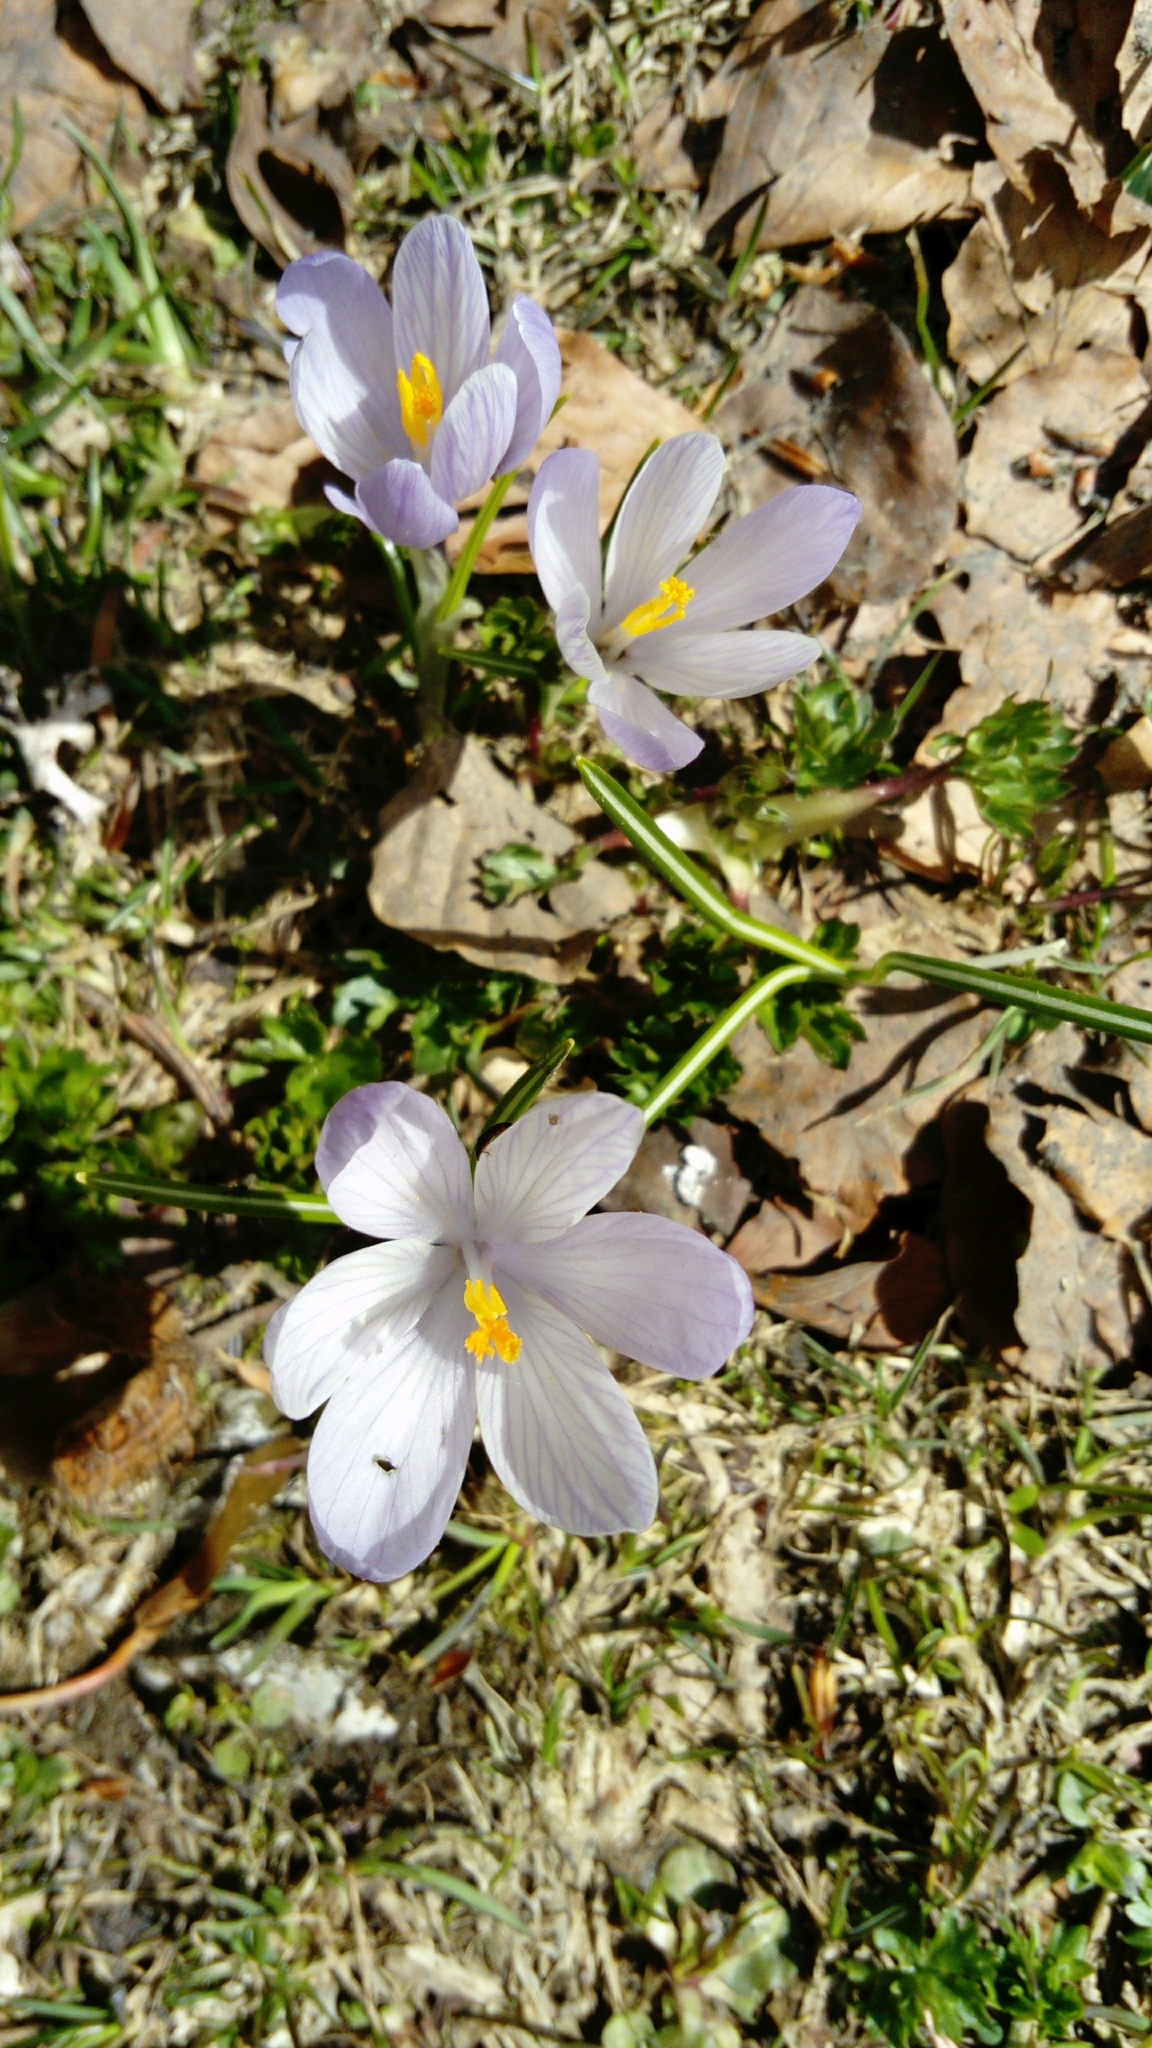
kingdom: Plantae
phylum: Tracheophyta
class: Liliopsida
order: Asparagales
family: Iridaceae
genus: Crocus
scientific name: Crocus neapolitanus
